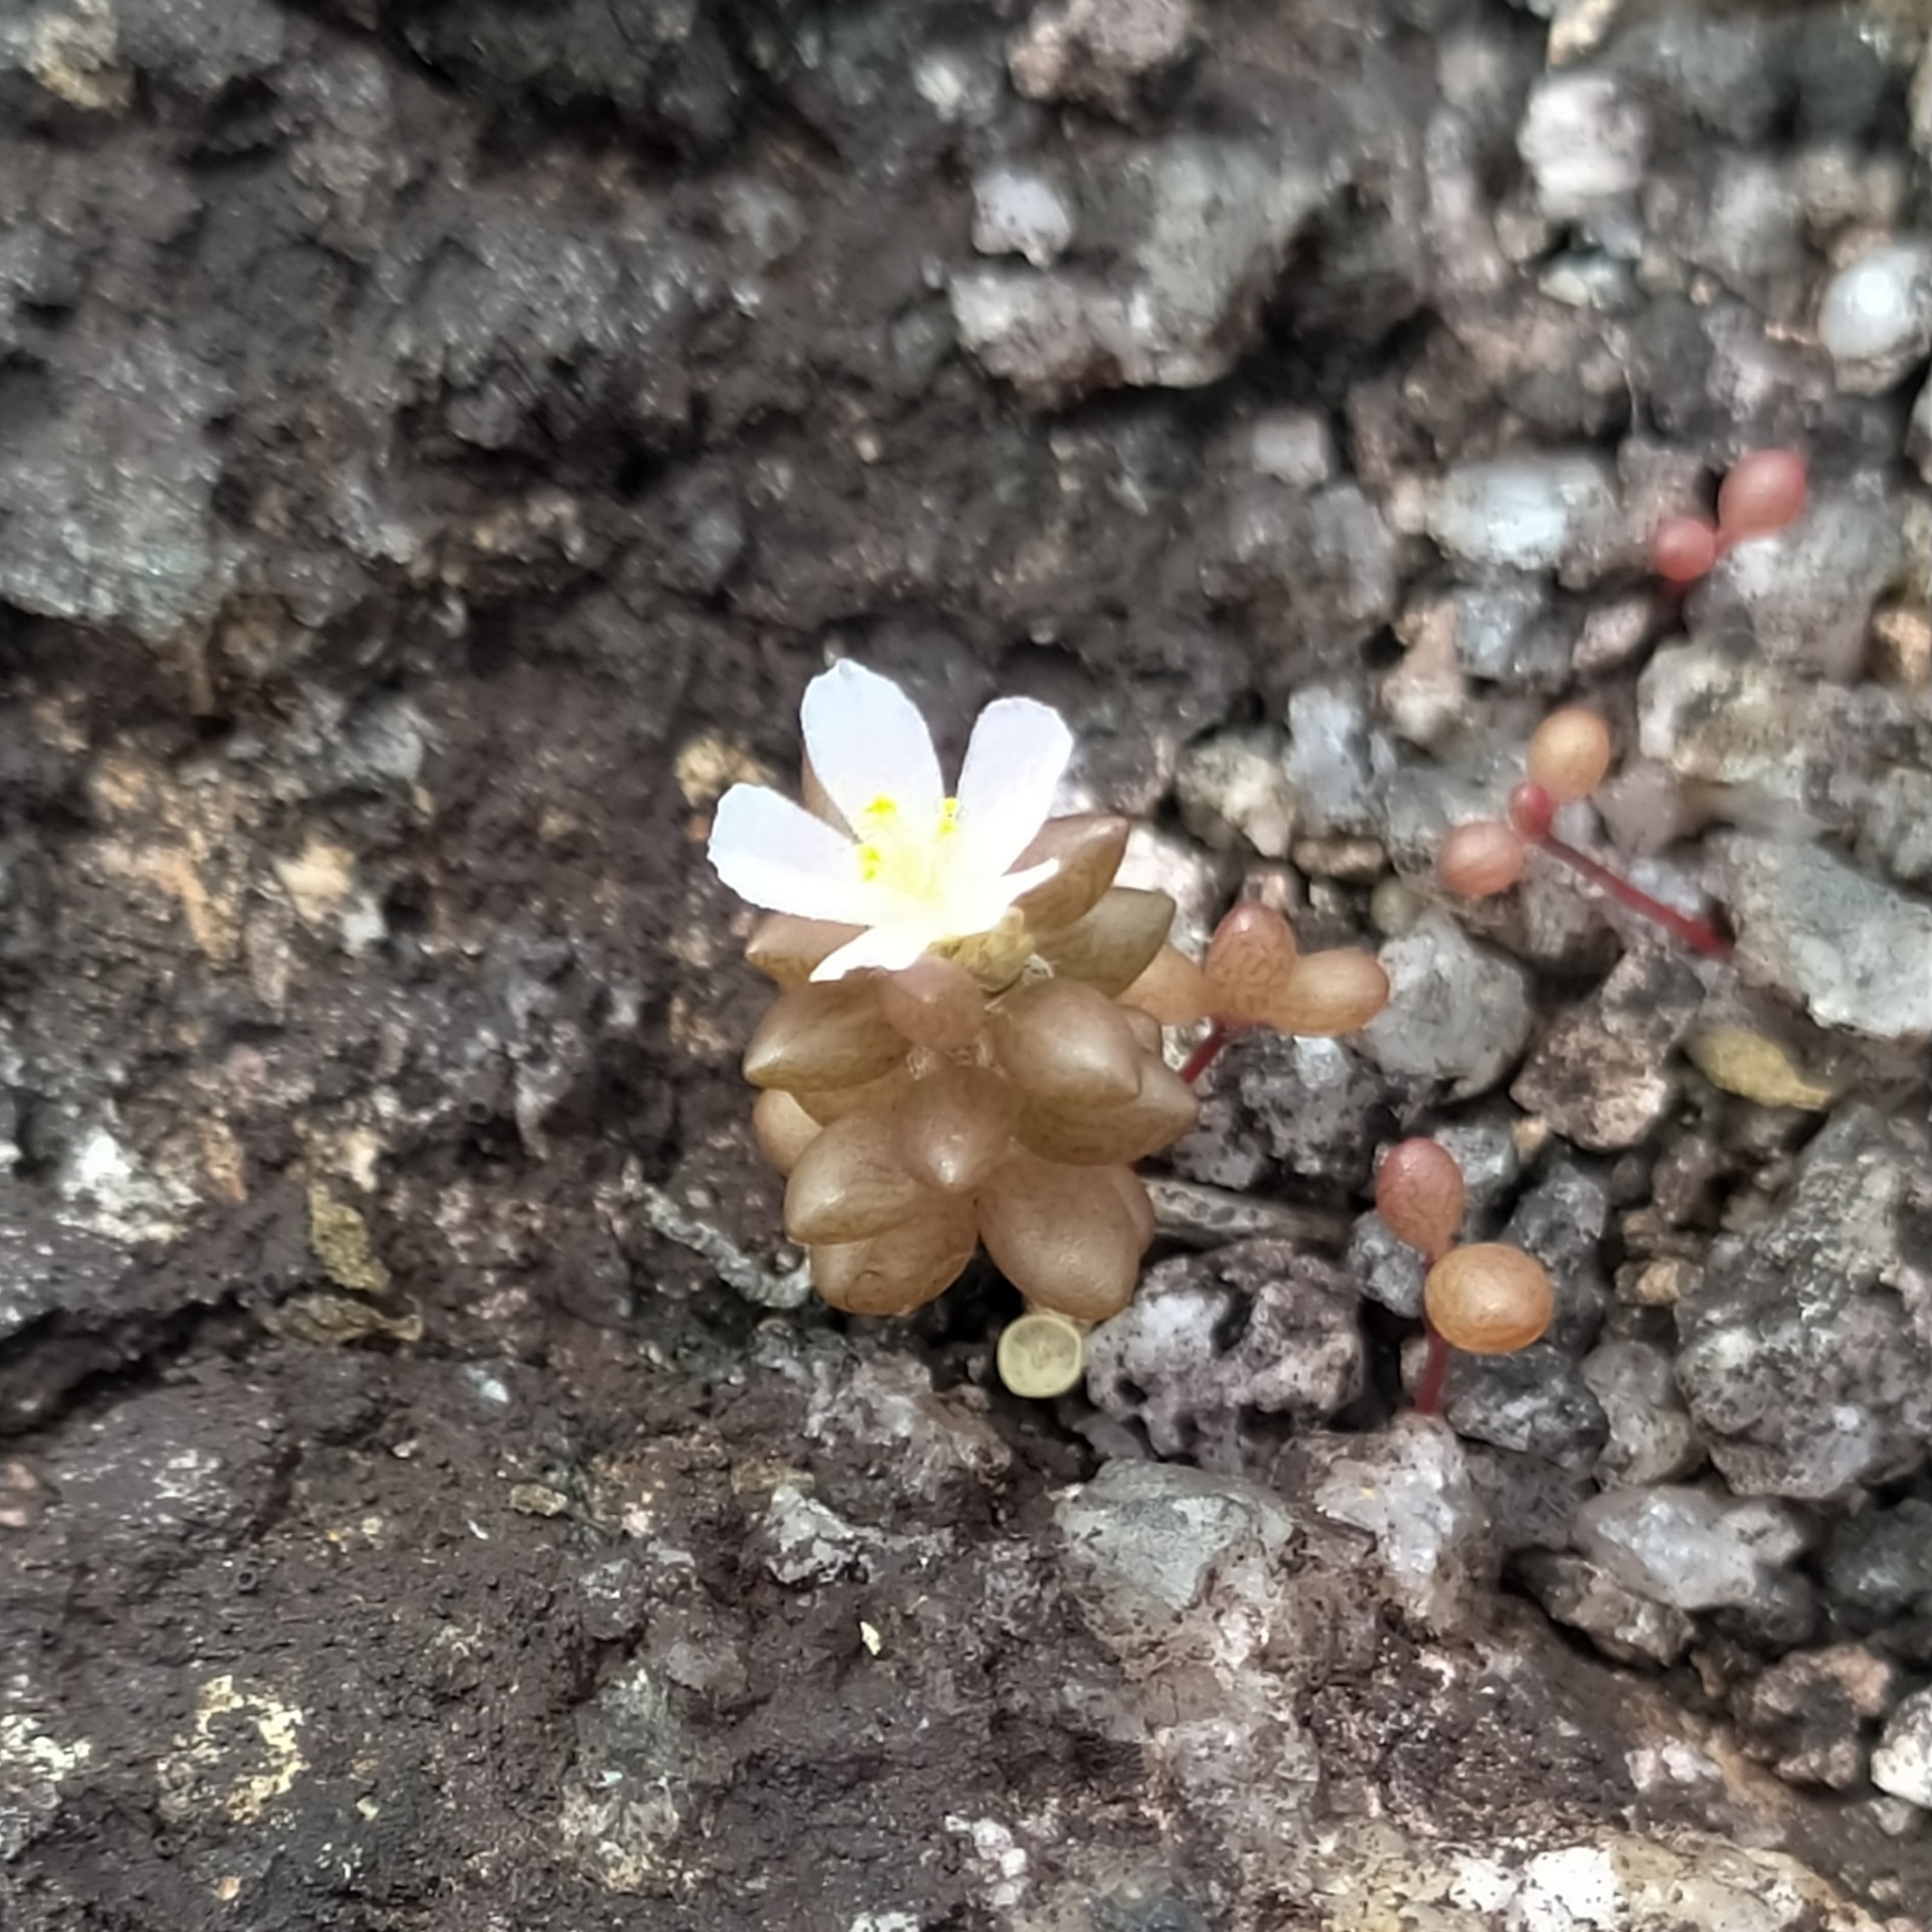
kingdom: Plantae
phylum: Tracheophyta
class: Magnoliopsida
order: Caryophyllales
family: Portulacaceae
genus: Portulaca
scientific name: Portulaca sedifolia
